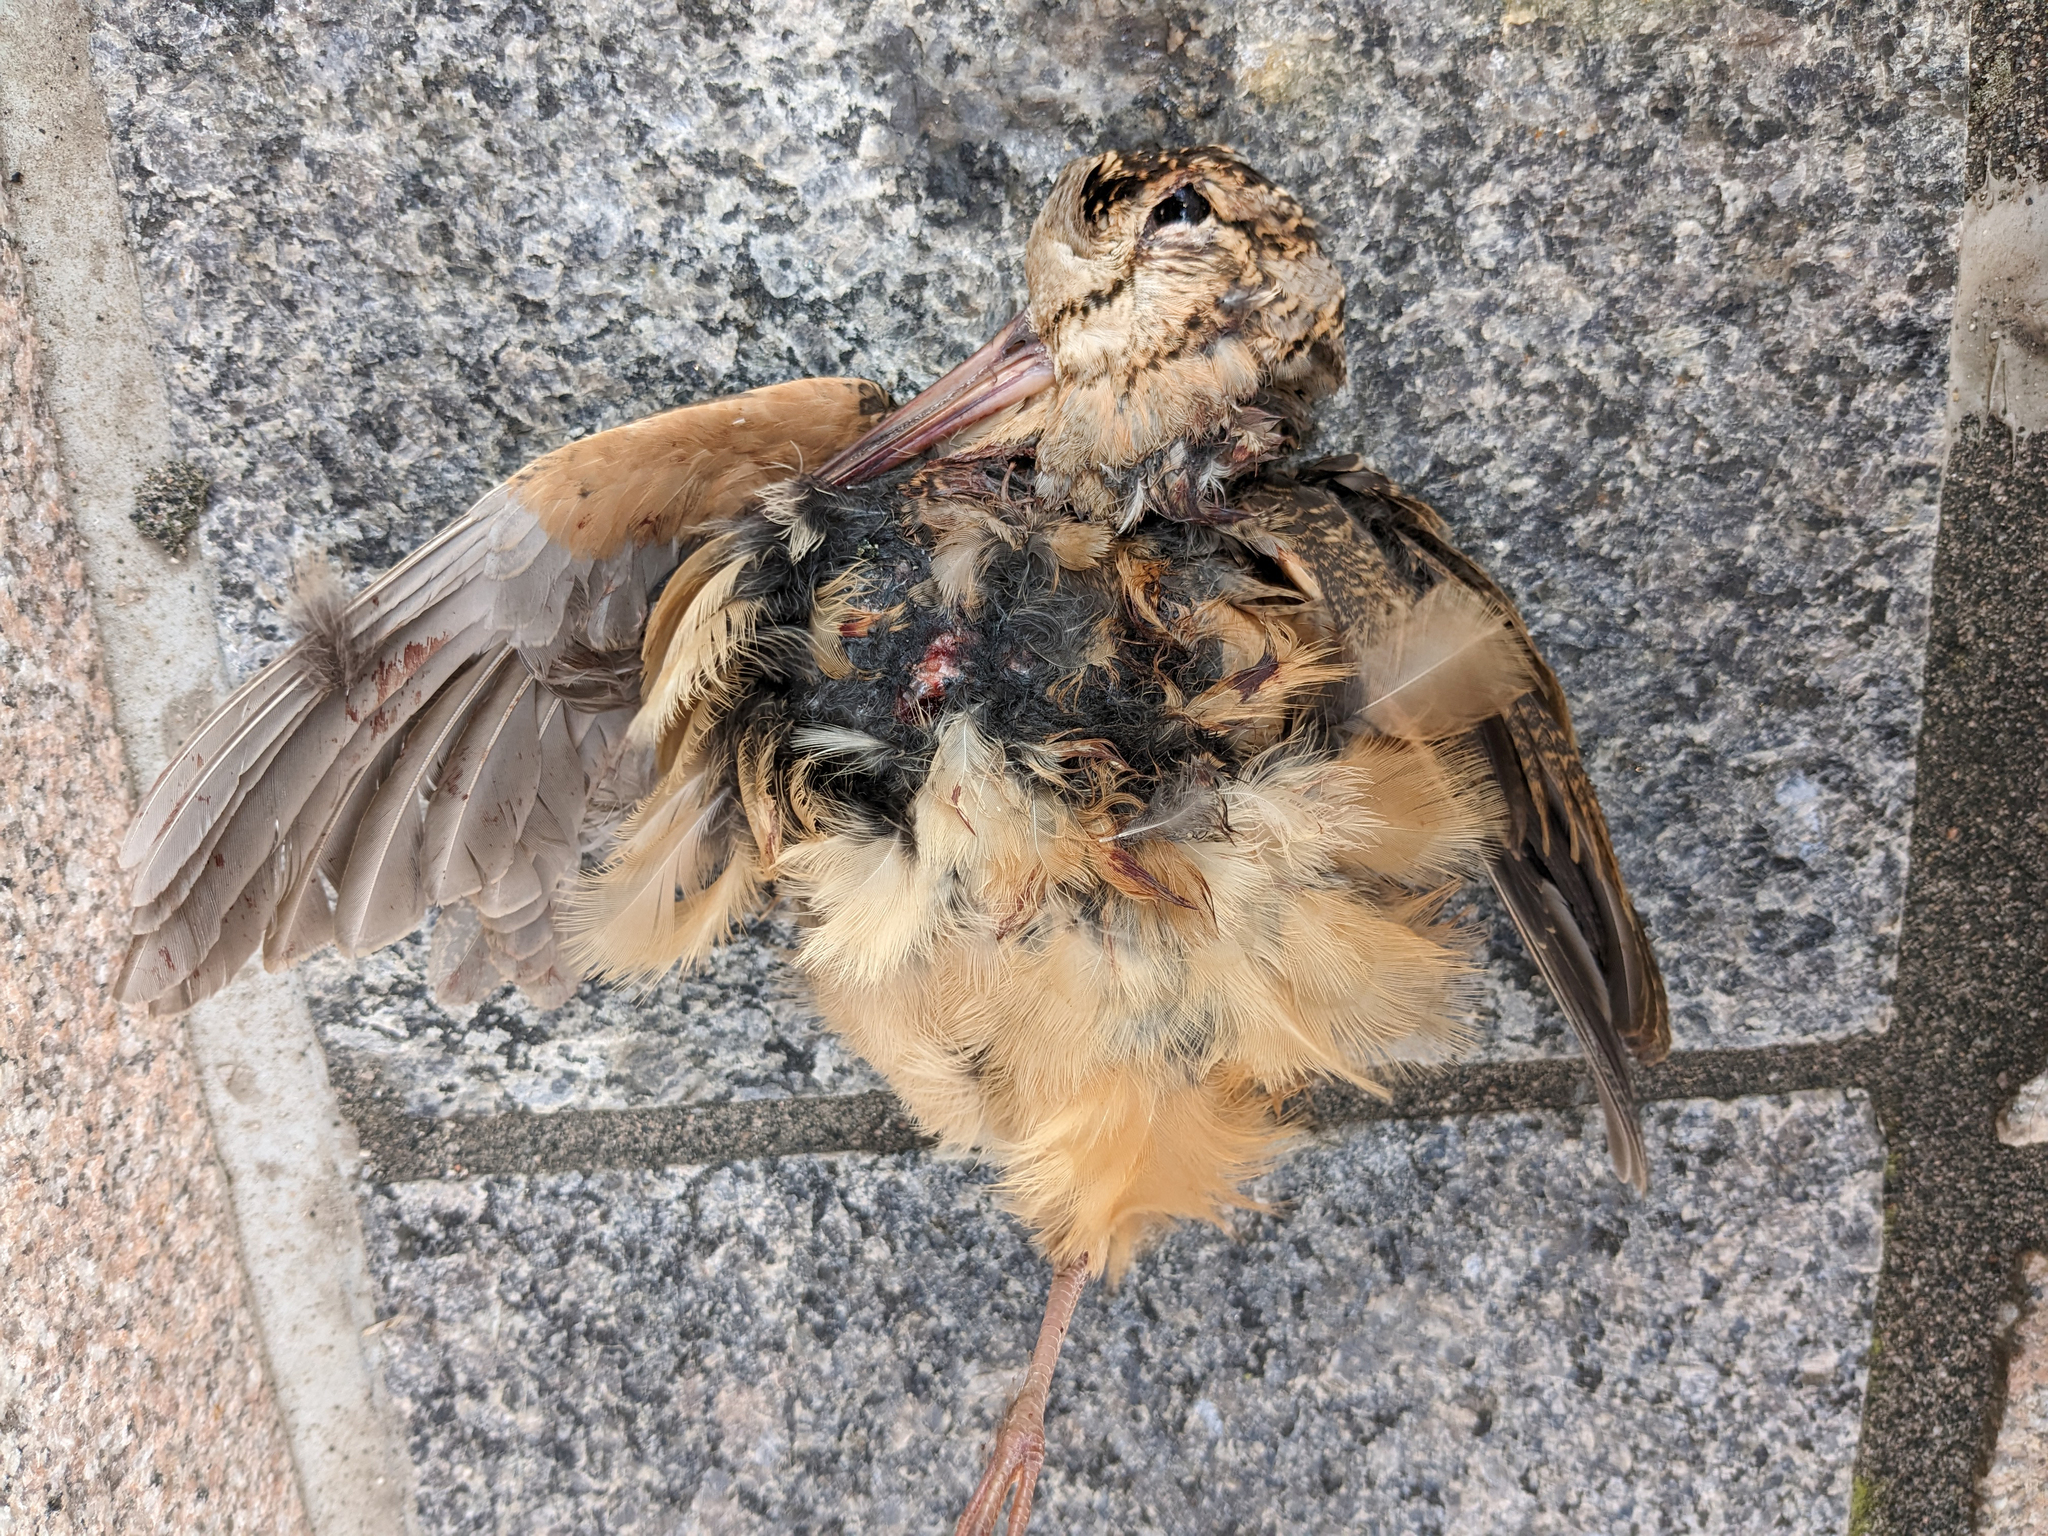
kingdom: Animalia
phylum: Chordata
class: Aves
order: Charadriiformes
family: Scolopacidae
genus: Scolopax
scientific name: Scolopax minor
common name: American woodcock
